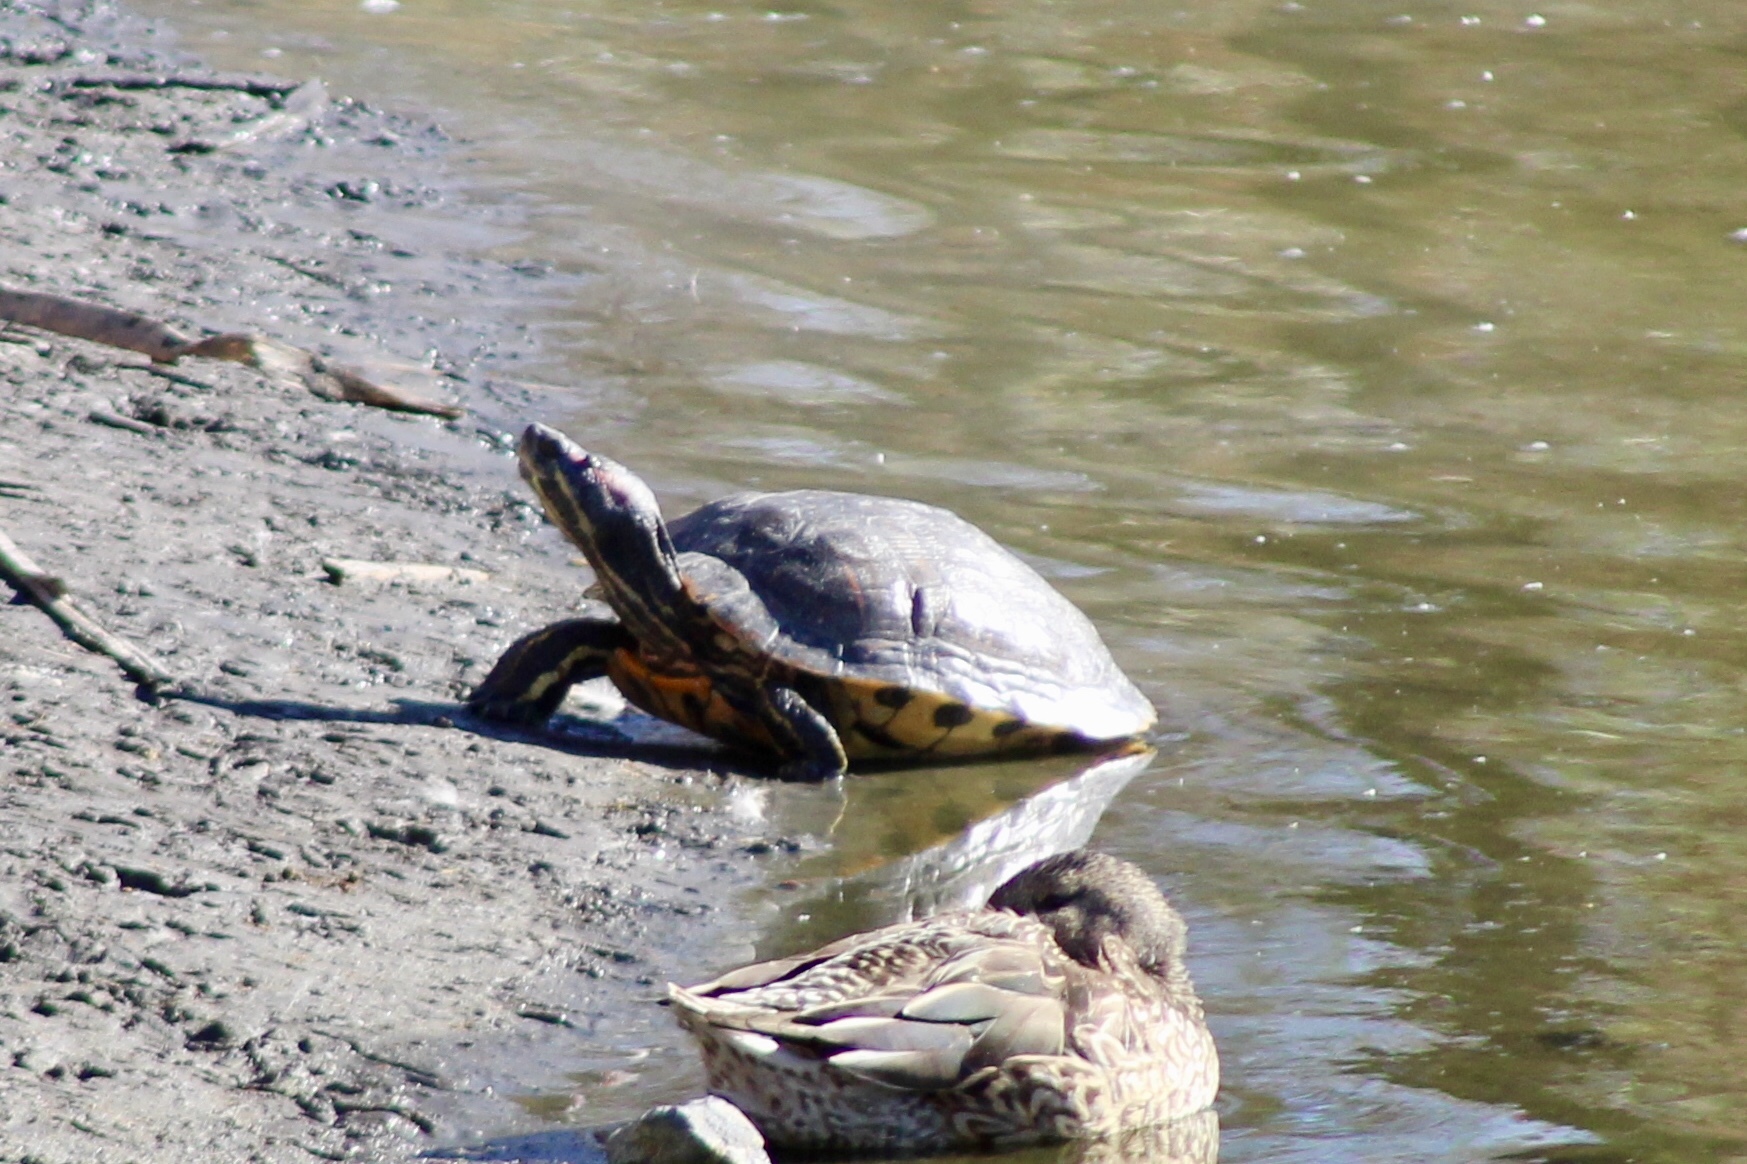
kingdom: Animalia
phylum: Chordata
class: Testudines
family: Emydidae
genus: Trachemys
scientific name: Trachemys scripta
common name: Slider
